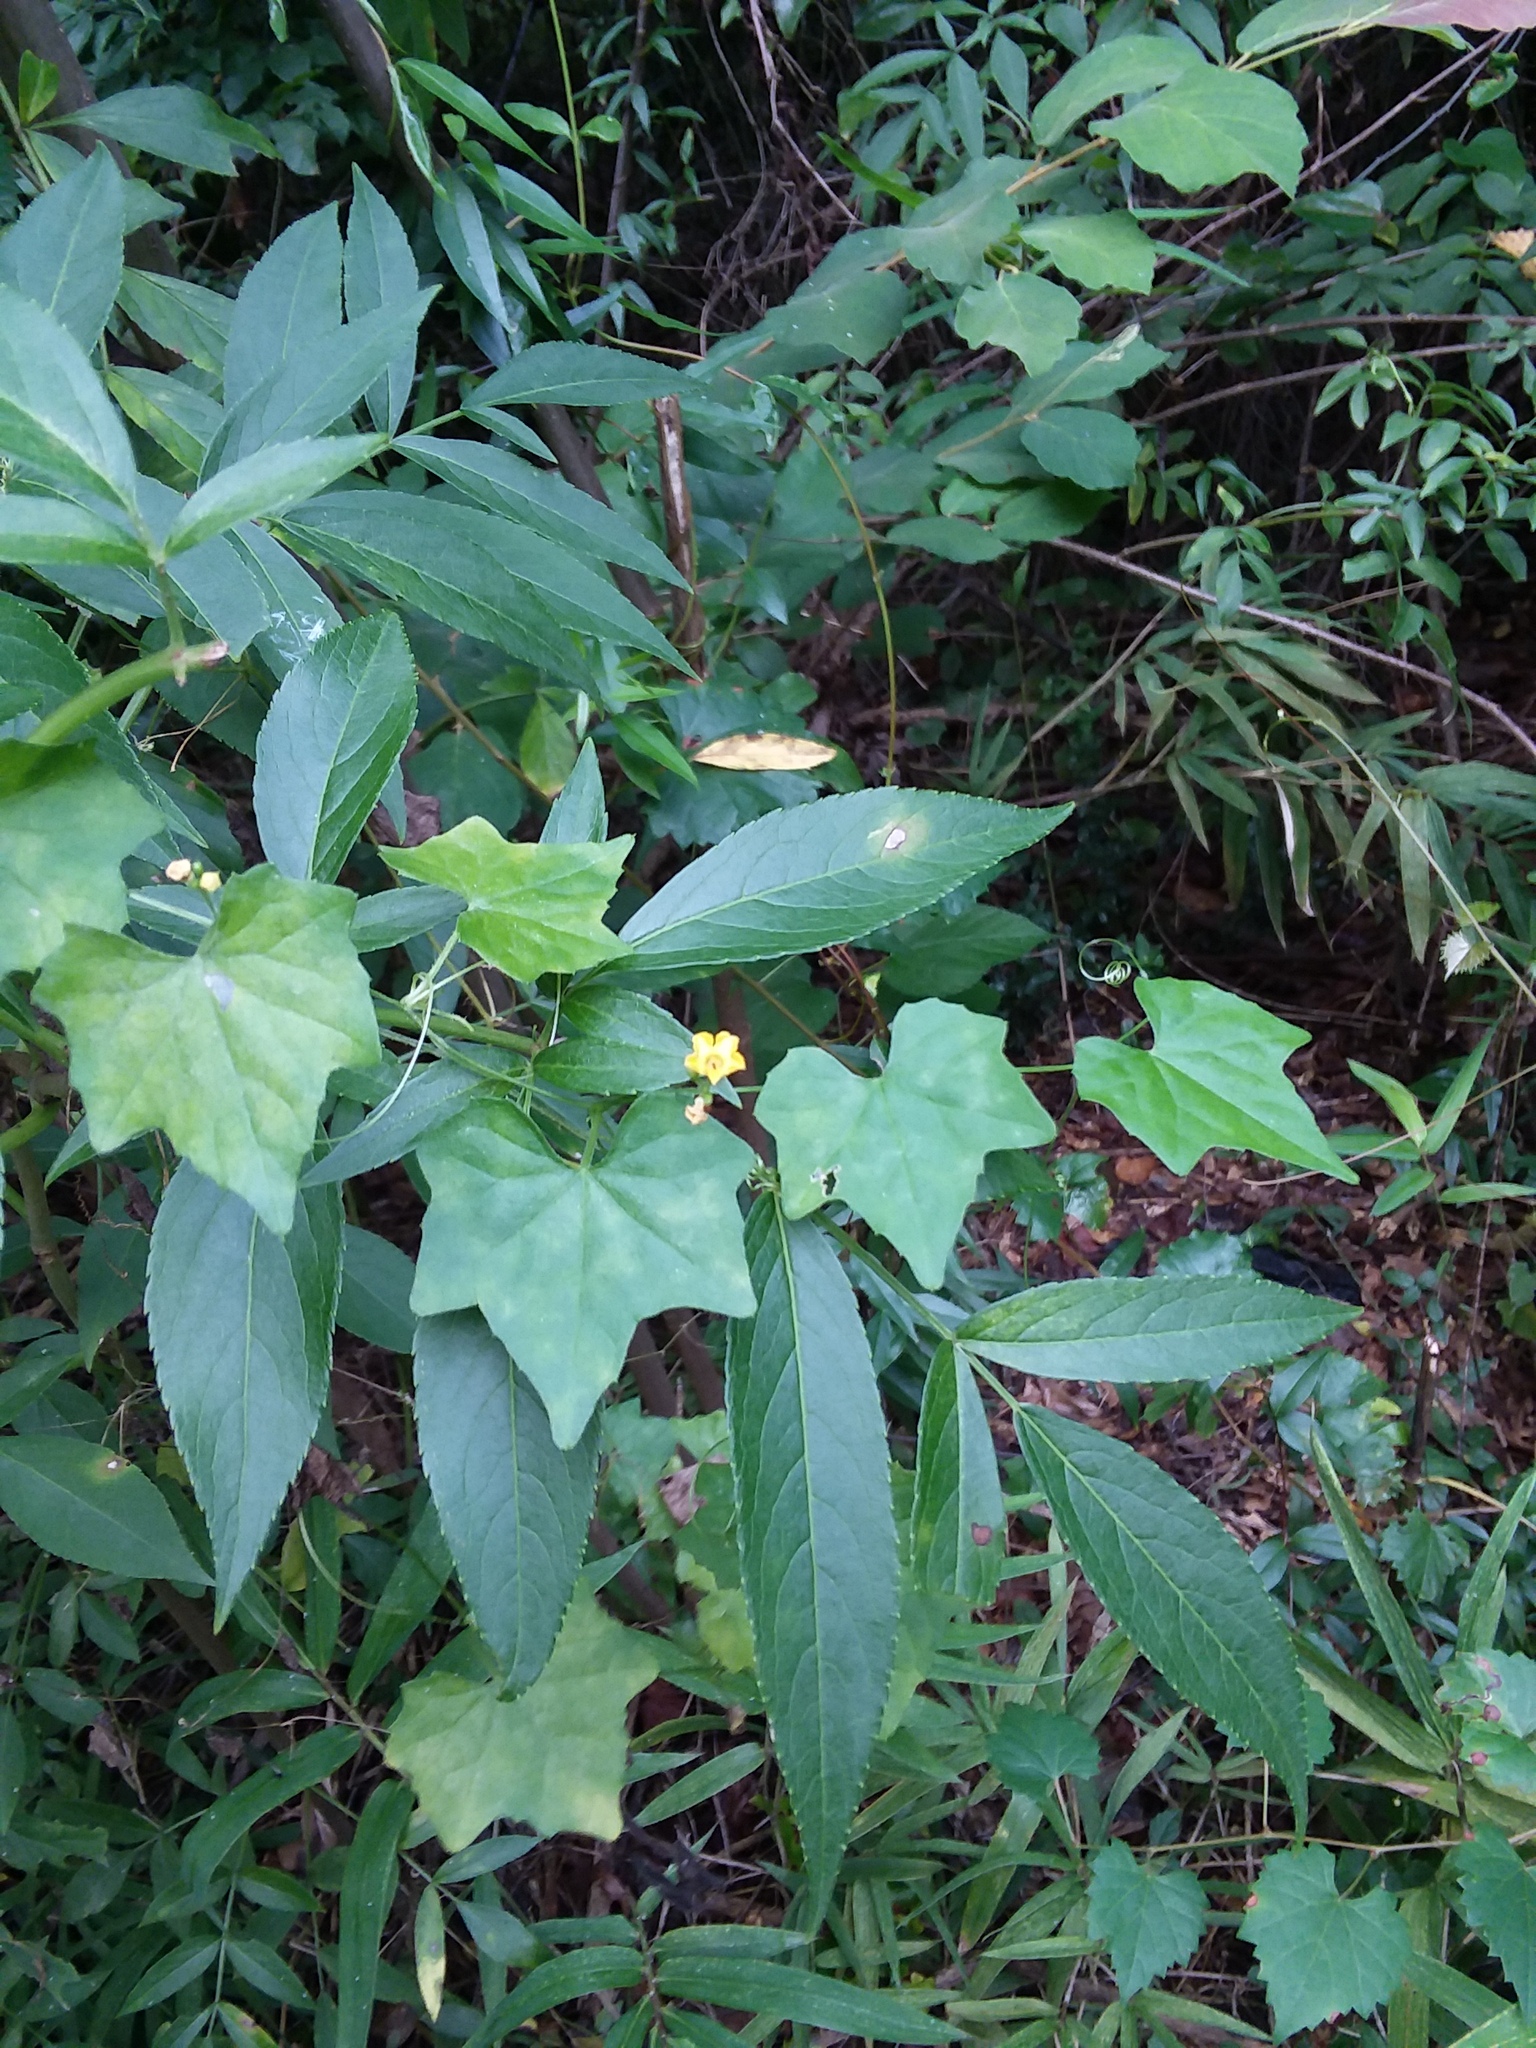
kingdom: Plantae
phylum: Tracheophyta
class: Magnoliopsida
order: Cucurbitales
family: Cucurbitaceae
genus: Melothria
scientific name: Melothria pendula
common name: Creeping-cucumber
